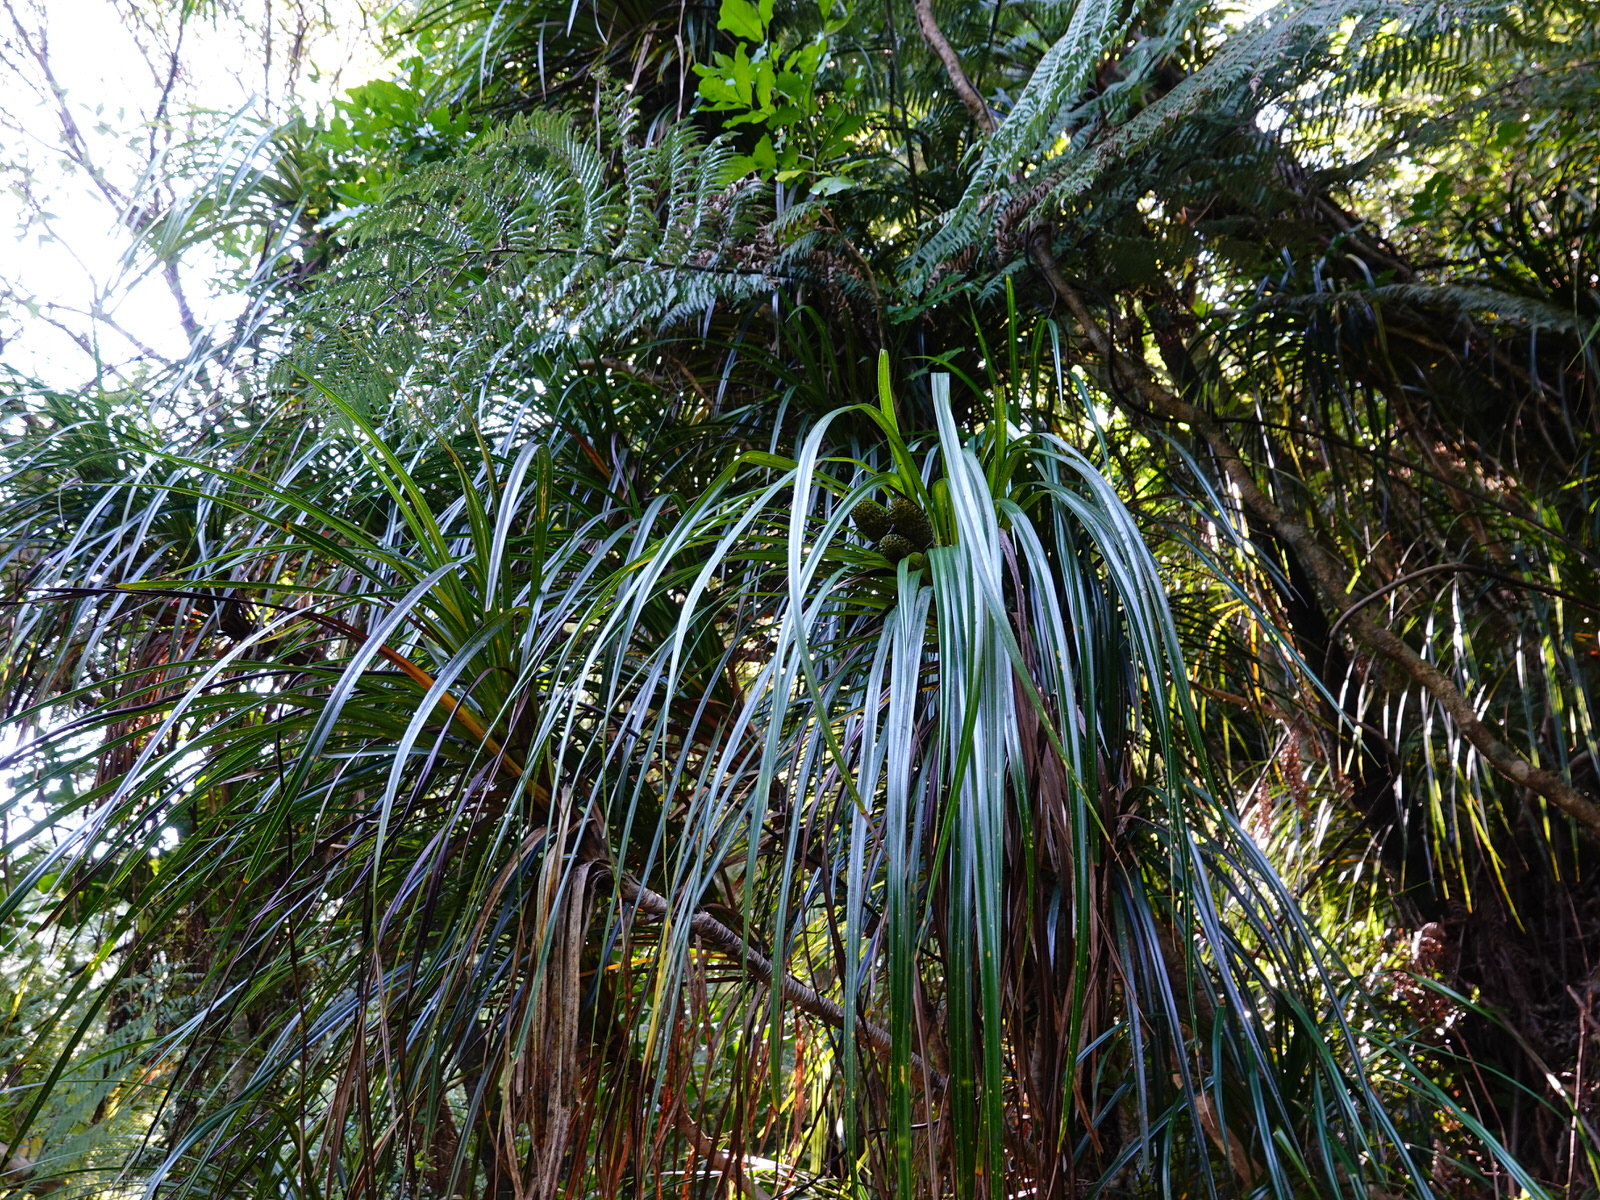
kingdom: Plantae
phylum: Tracheophyta
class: Liliopsida
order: Pandanales
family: Pandanaceae
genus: Freycinetia
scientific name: Freycinetia banksii
